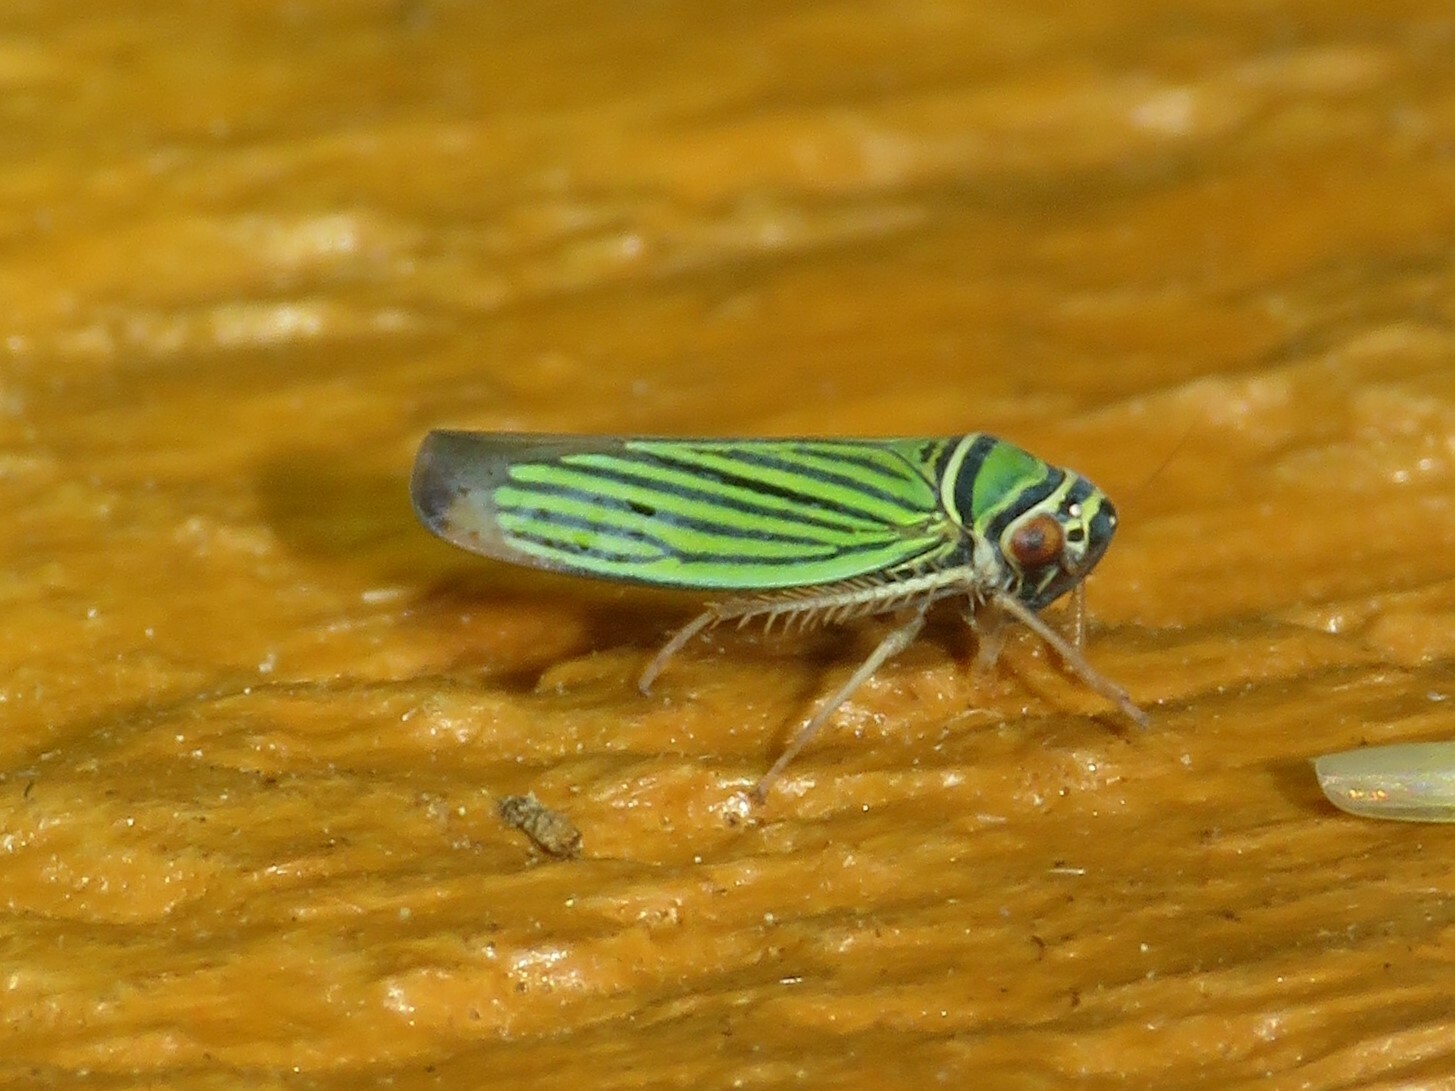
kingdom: Animalia
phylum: Arthropoda
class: Insecta
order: Hemiptera
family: Cicadellidae
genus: Tylozygus
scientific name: Tylozygus bifidus
